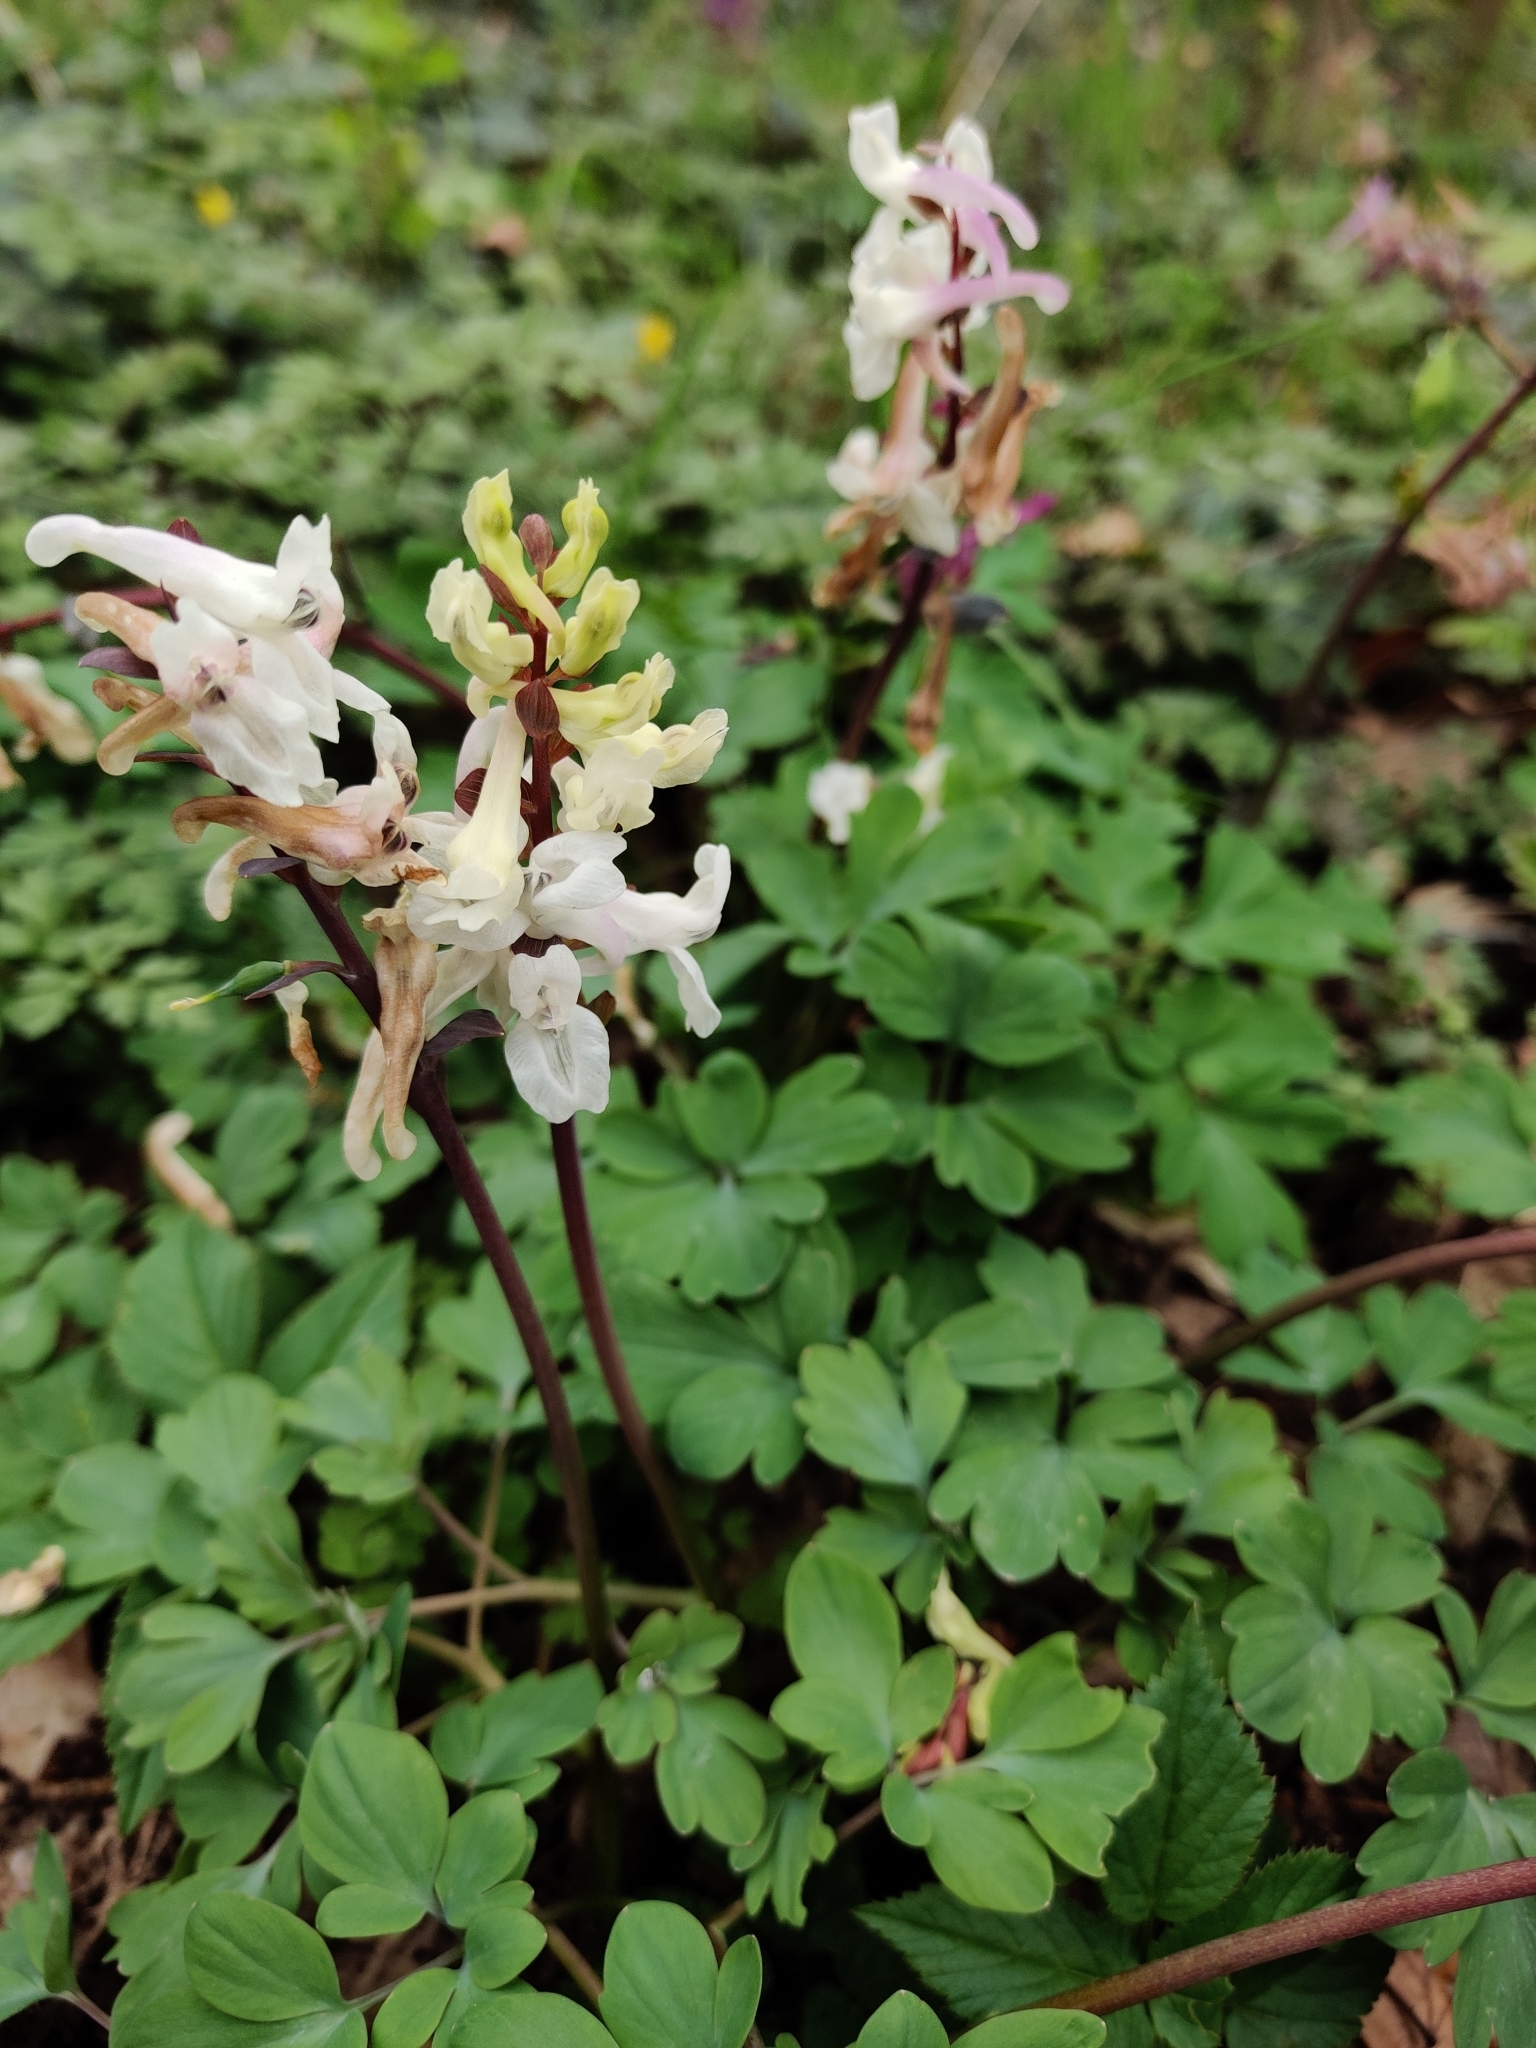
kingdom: Plantae
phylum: Tracheophyta
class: Magnoliopsida
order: Ranunculales
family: Papaveraceae
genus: Corydalis
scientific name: Corydalis cava
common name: Hollowroot
